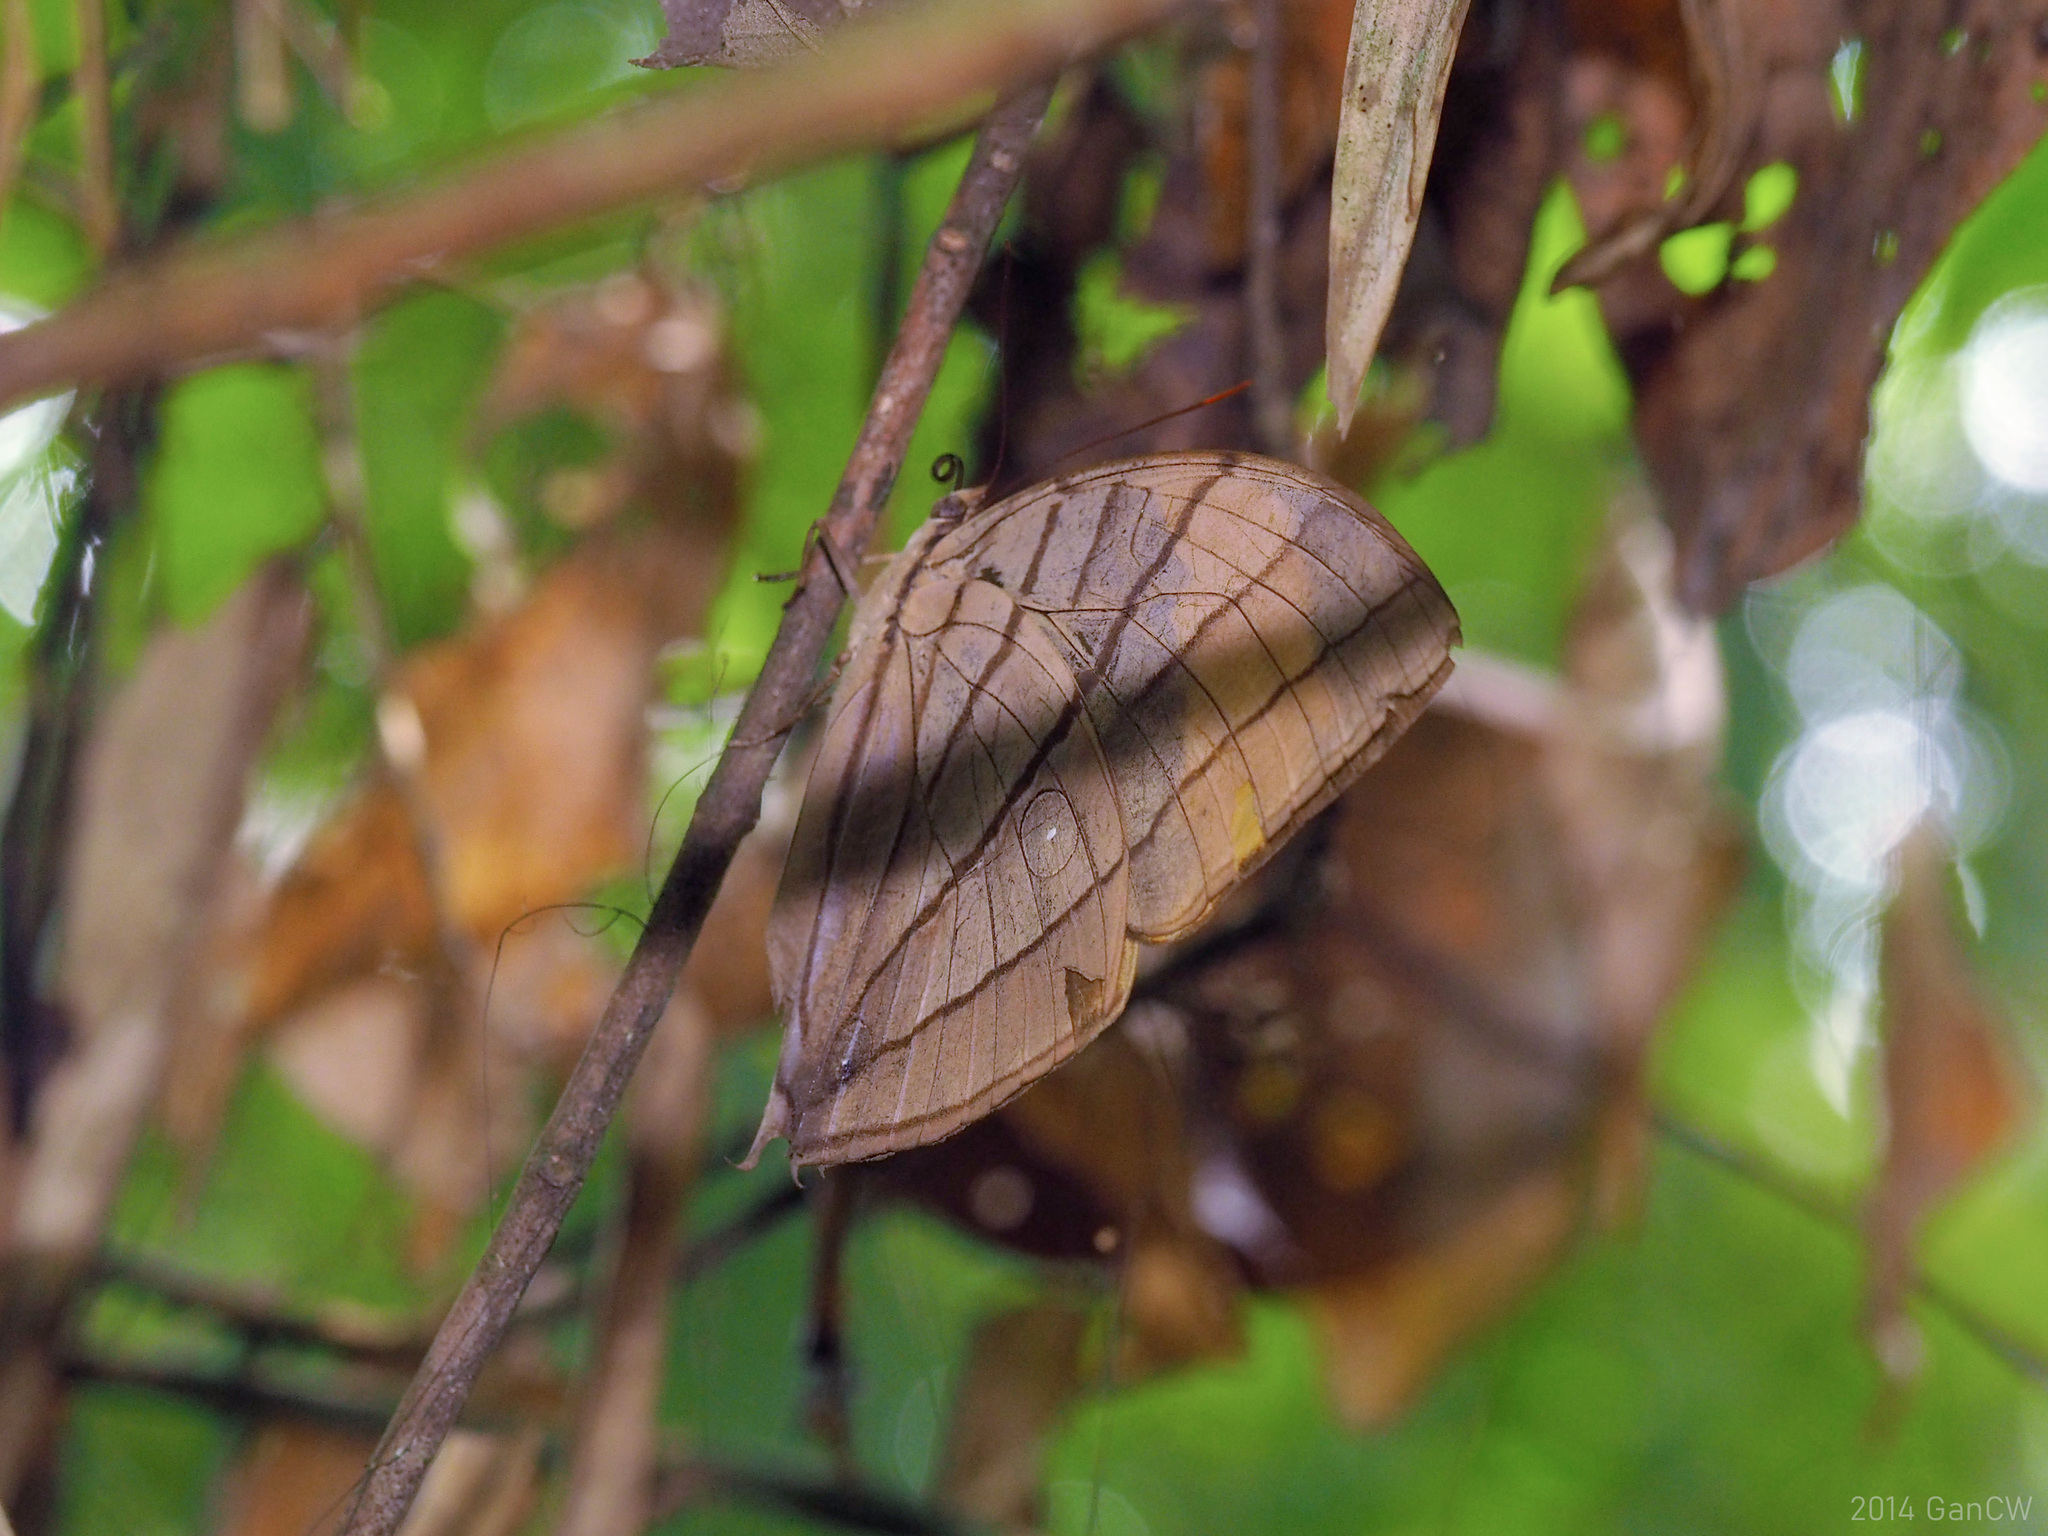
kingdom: Animalia
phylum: Arthropoda
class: Insecta
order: Lepidoptera
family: Nymphalidae
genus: Amathuxidia
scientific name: Amathuxidia amythaon
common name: Koh-i-noor
